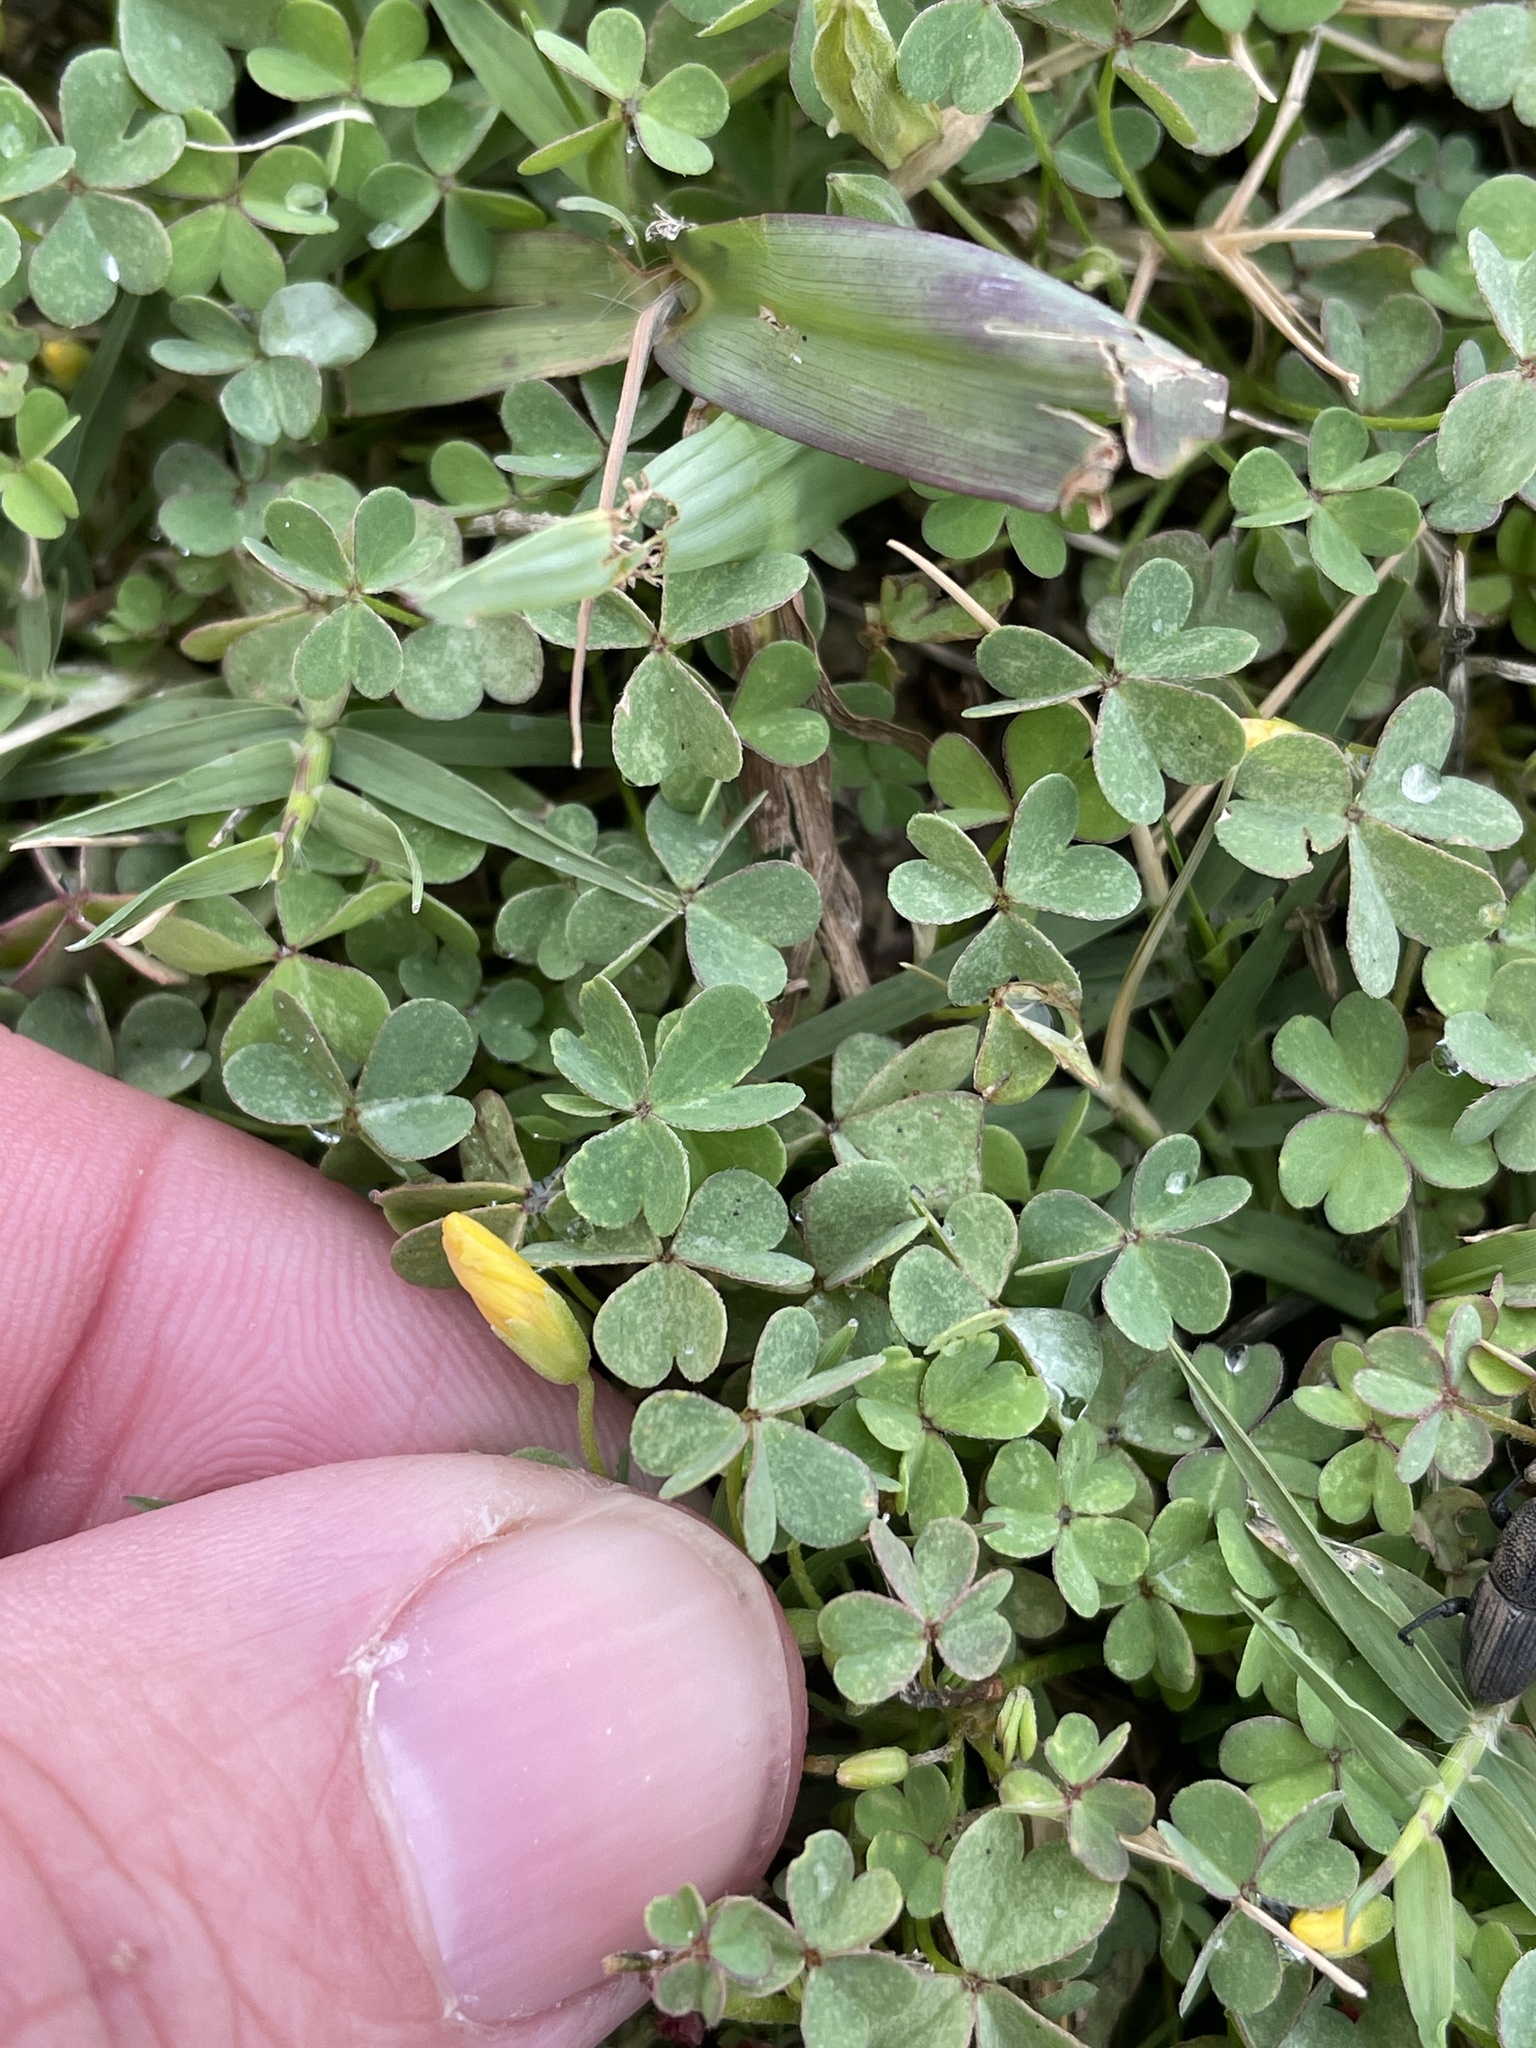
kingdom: Plantae
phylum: Tracheophyta
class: Magnoliopsida
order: Oxalidales
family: Oxalidaceae
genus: Oxalis
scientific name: Oxalis corniculata
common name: Procumbent yellow-sorrel
